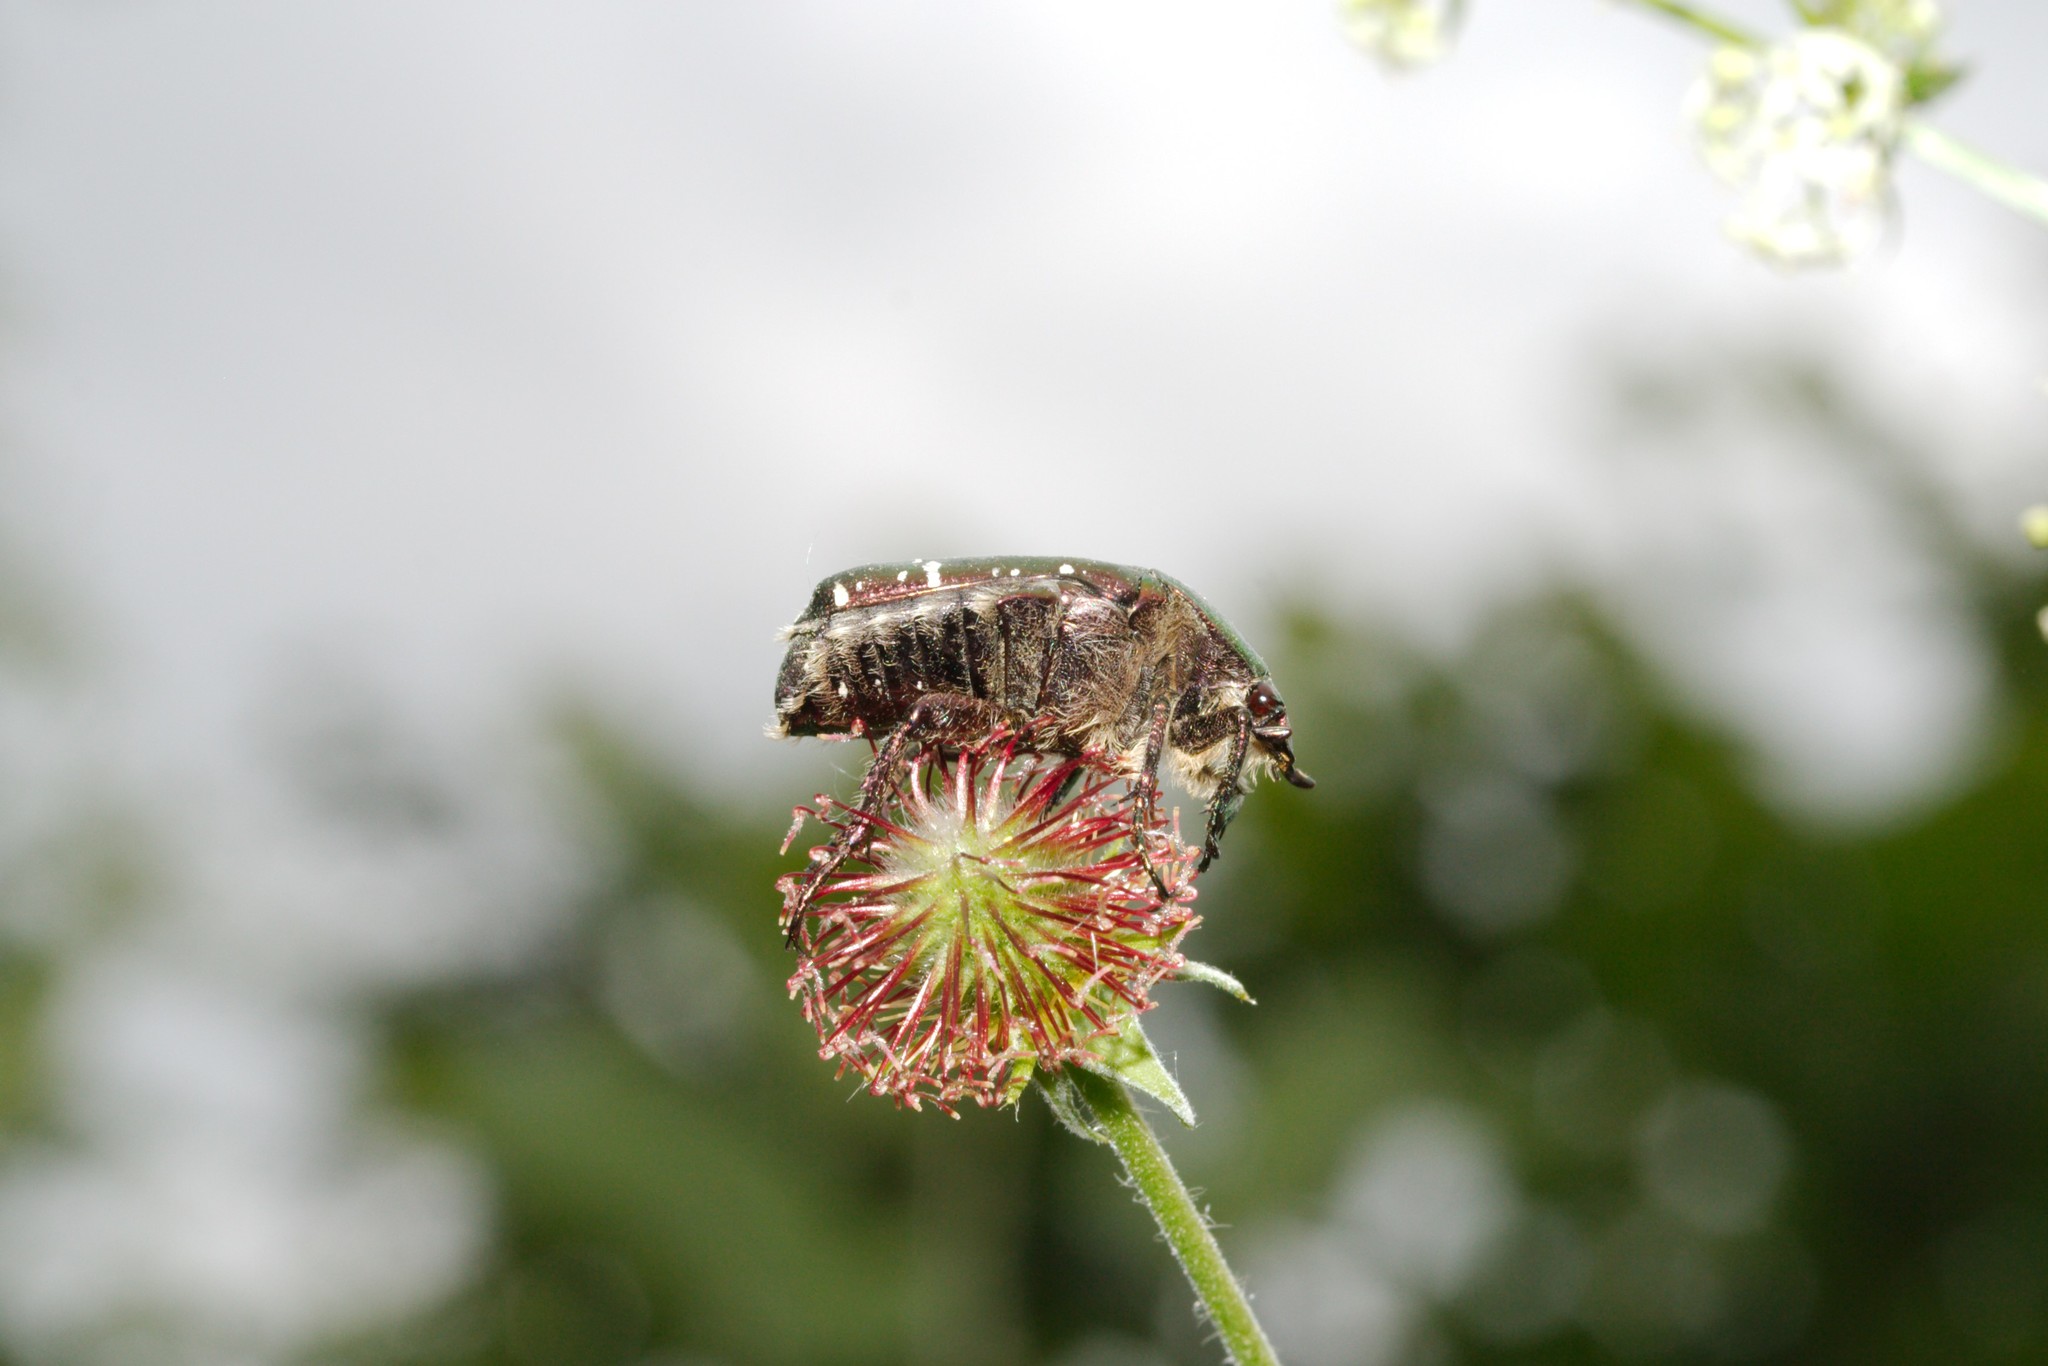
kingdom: Animalia
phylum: Arthropoda
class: Insecta
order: Coleoptera
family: Scarabaeidae
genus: Cetonia
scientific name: Cetonia aurata
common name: Rose chafer
